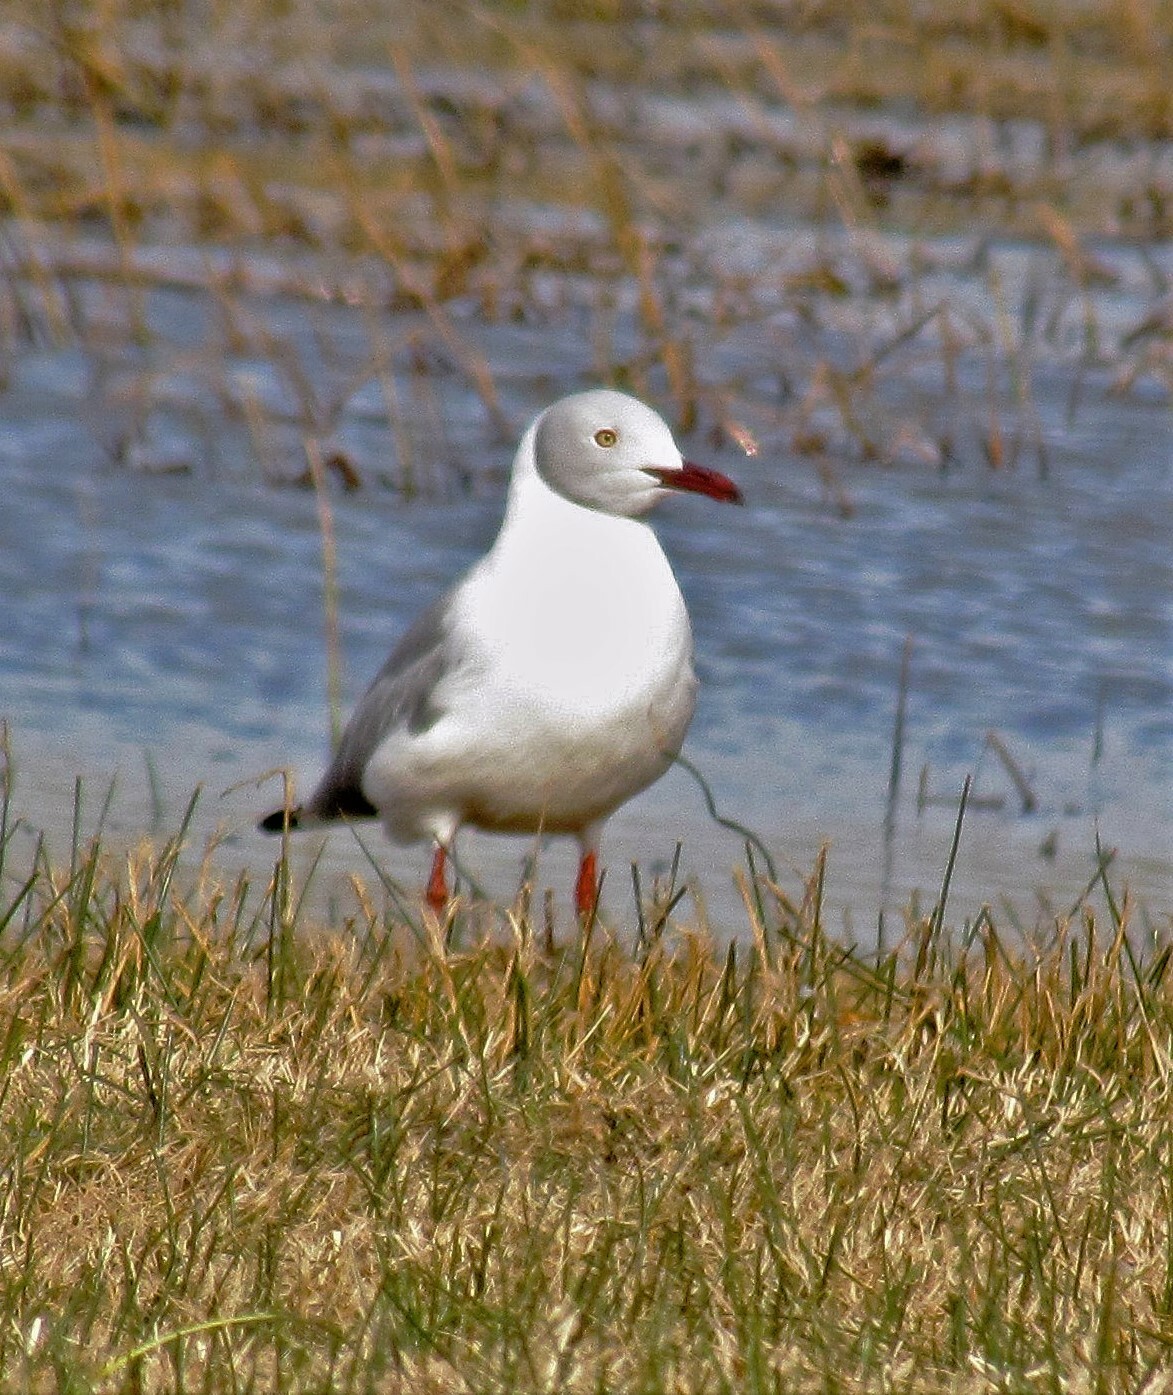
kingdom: Animalia
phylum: Chordata
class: Aves
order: Charadriiformes
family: Laridae
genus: Chroicocephalus
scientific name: Chroicocephalus cirrocephalus
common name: Grey-headed gull
